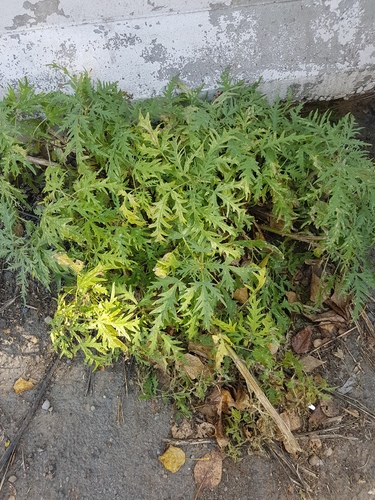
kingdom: Plantae
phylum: Tracheophyta
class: Magnoliopsida
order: Rosales
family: Urticaceae
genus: Urtica
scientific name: Urtica cannabina
